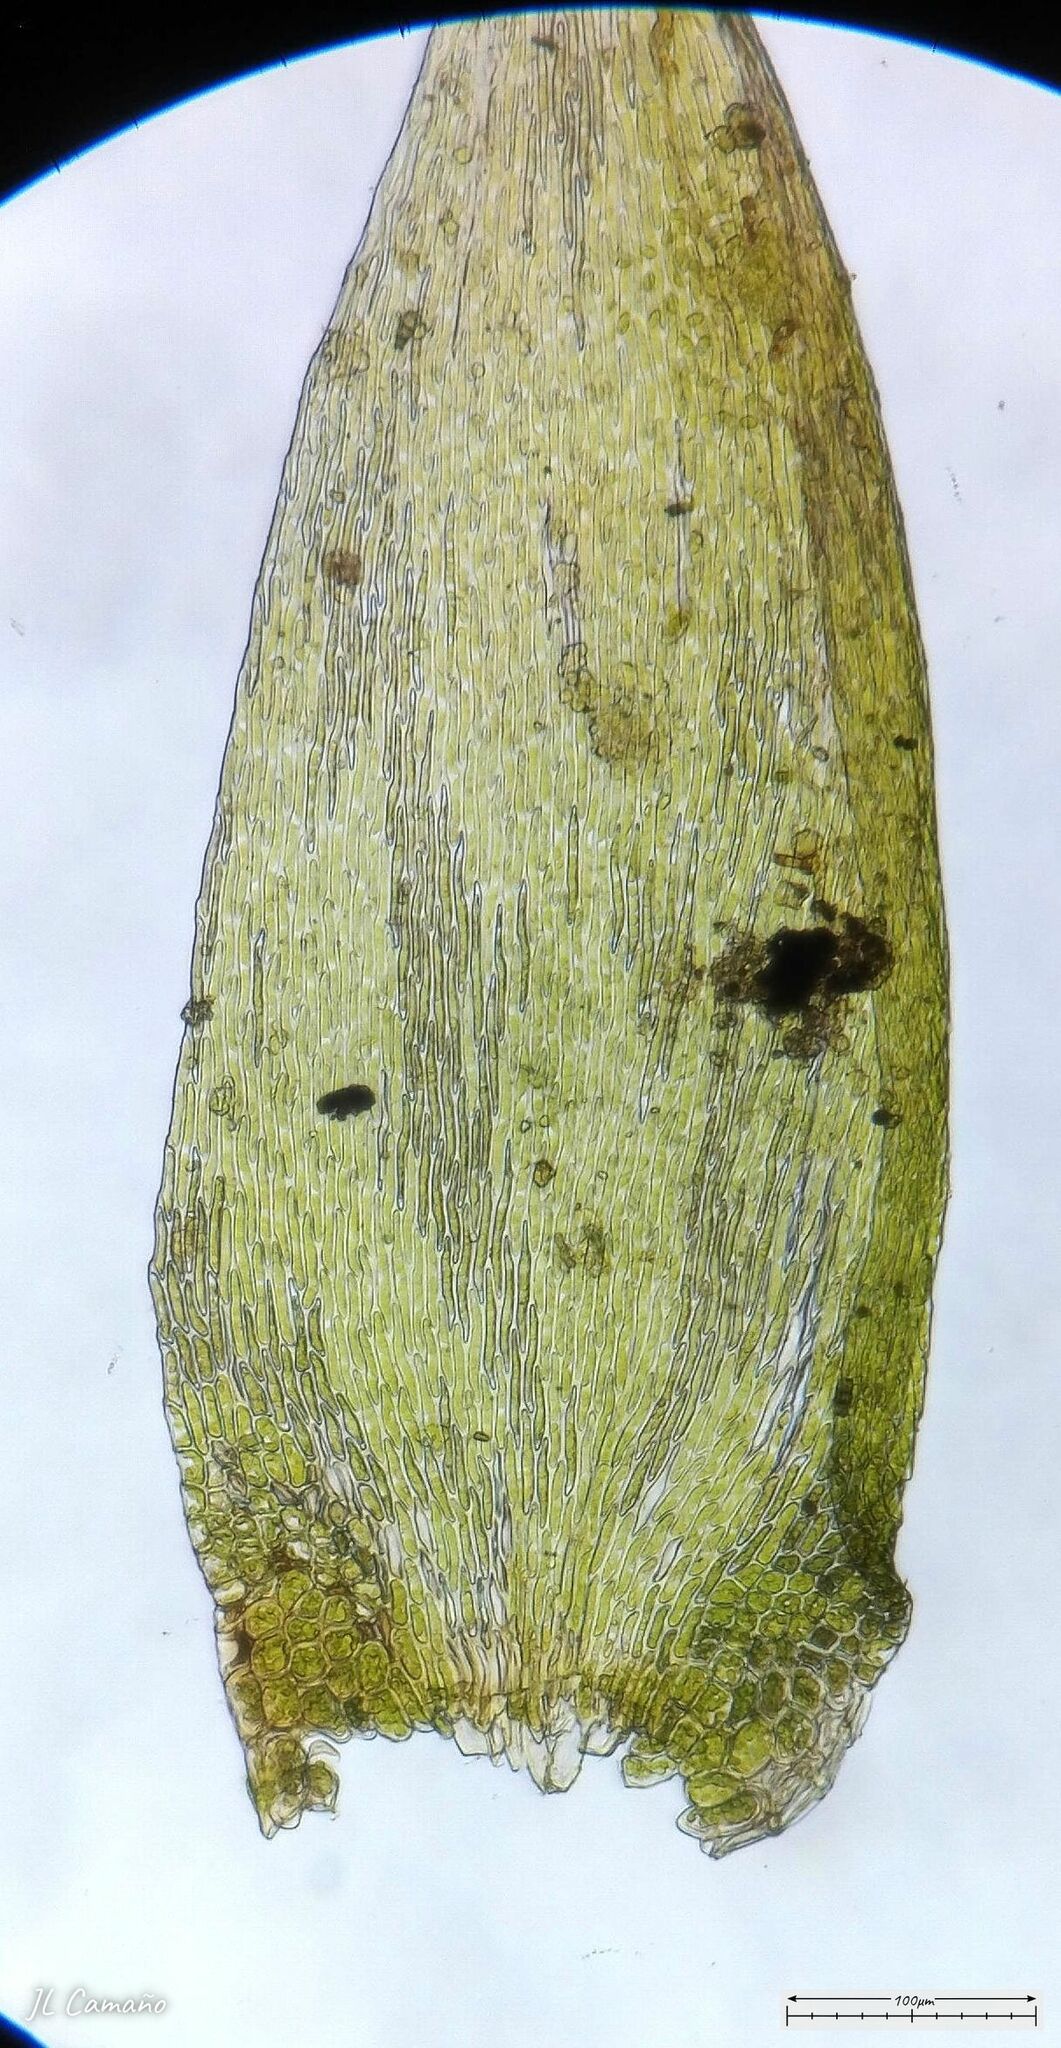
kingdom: Plantae
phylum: Bryophyta
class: Bryopsida
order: Hypnales
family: Sematophyllaceae
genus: Sematophyllum
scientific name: Sematophyllum substrumulosum
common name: Bark signal-moss
